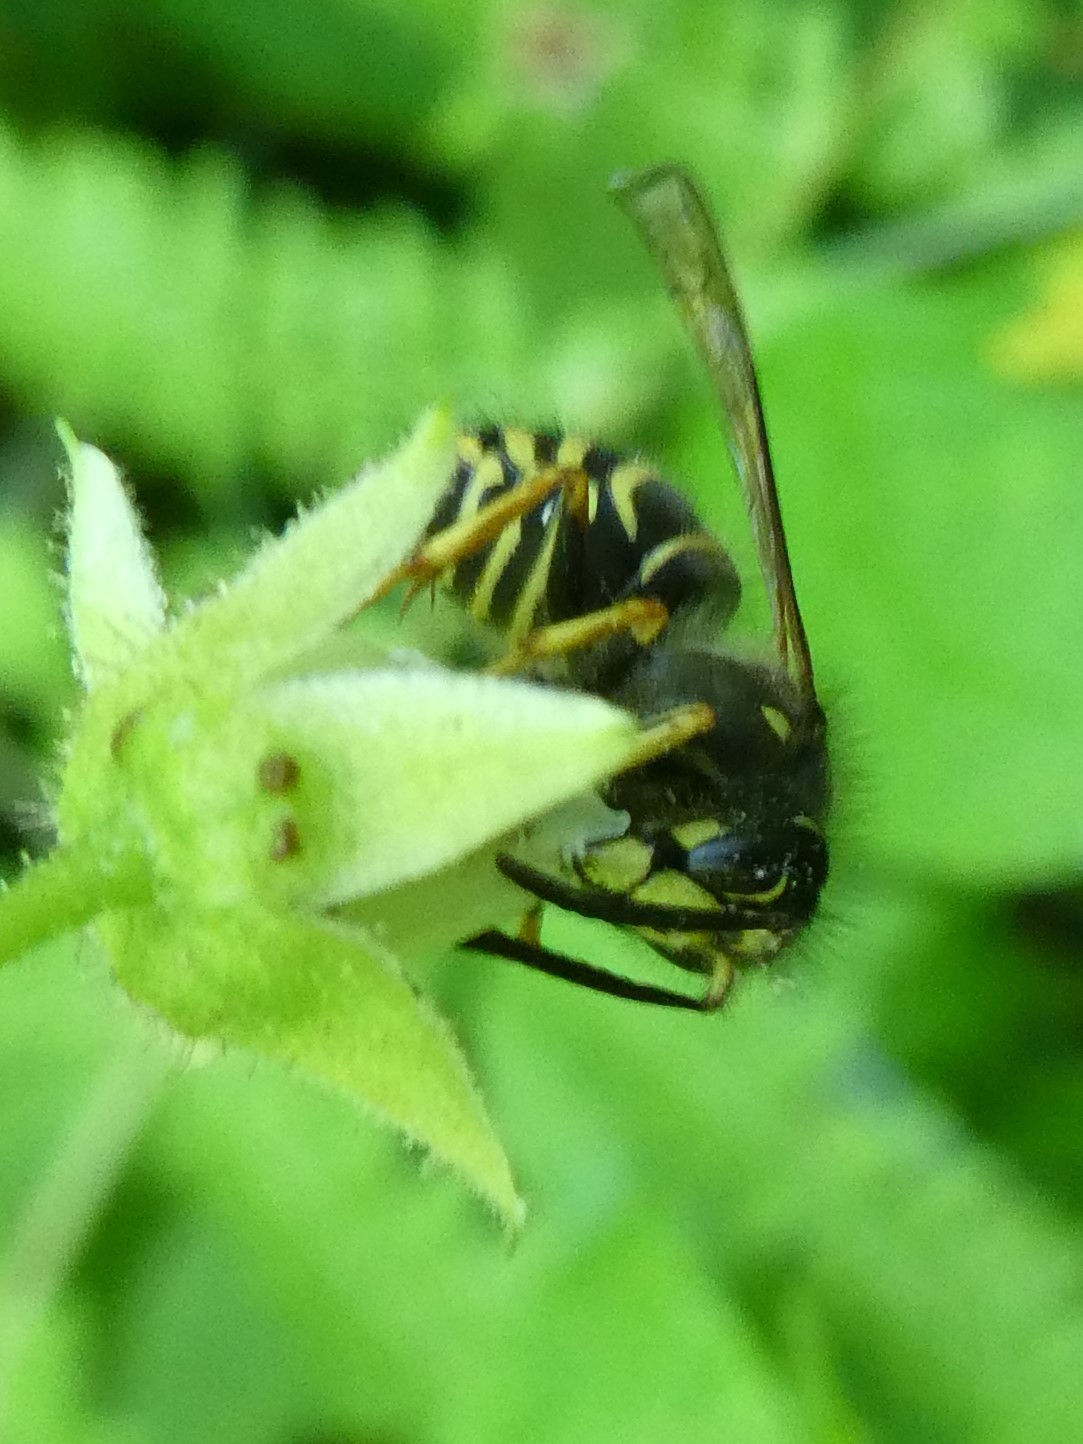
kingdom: Animalia
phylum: Arthropoda
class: Insecta
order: Hymenoptera
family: Vespidae
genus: Dolichovespula
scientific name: Dolichovespula norvegicoides
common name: Northern aerial yellowjacket
